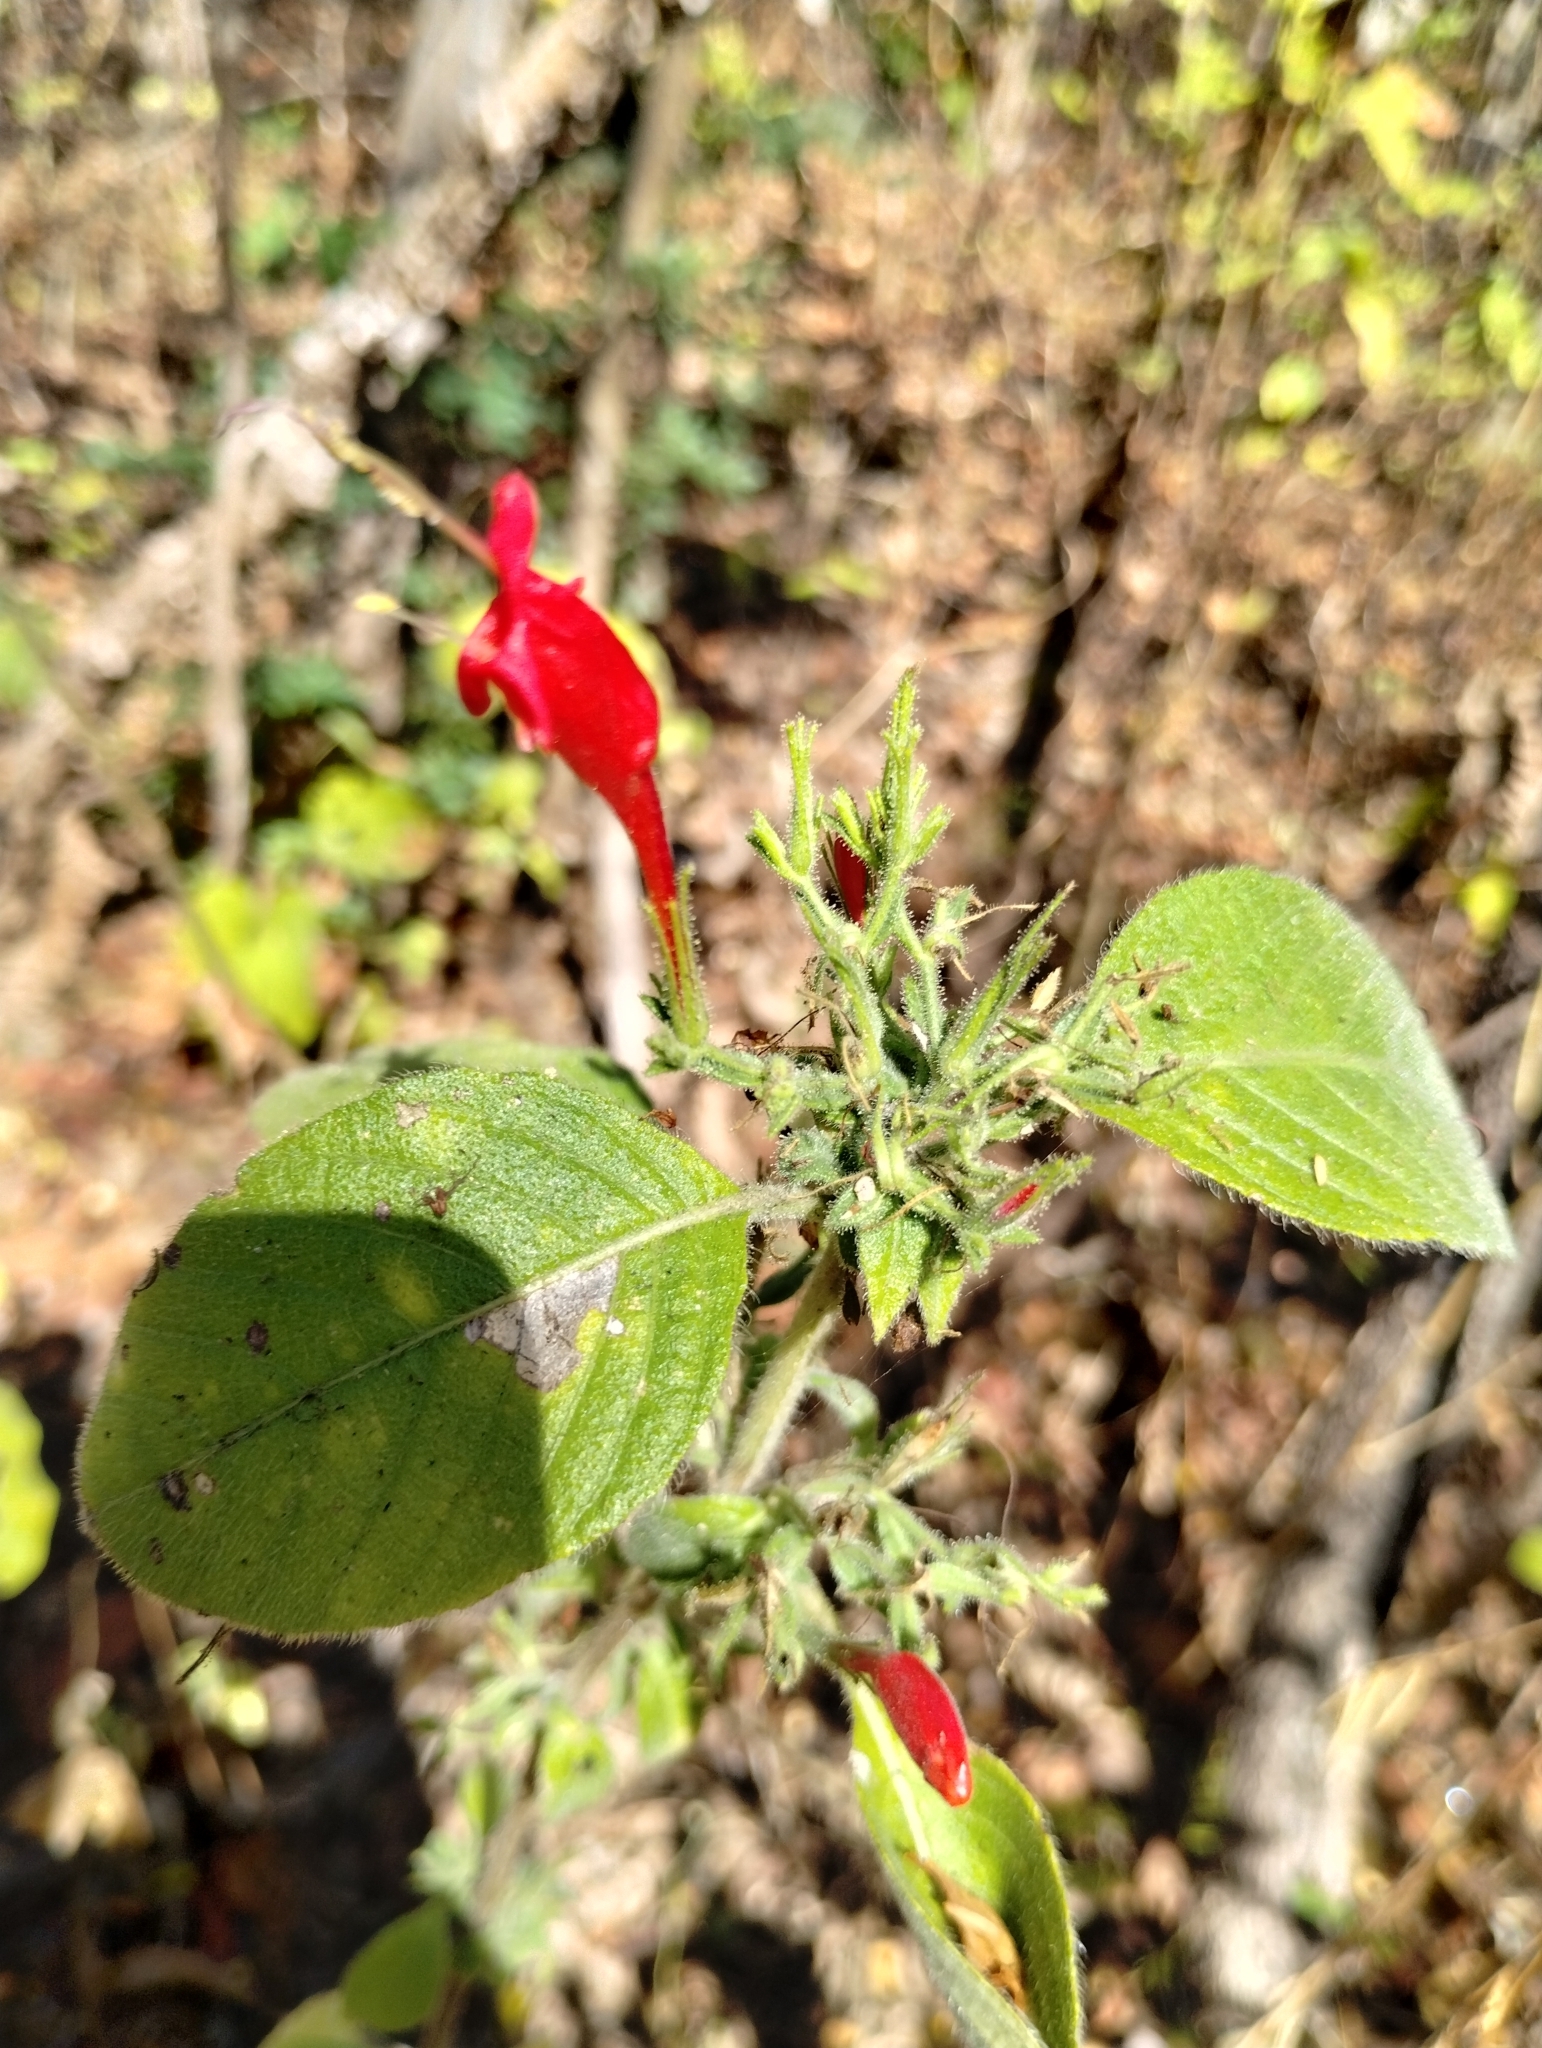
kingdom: Plantae
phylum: Tracheophyta
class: Magnoliopsida
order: Lamiales
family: Acanthaceae
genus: Ruellia
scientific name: Ruellia asperula
